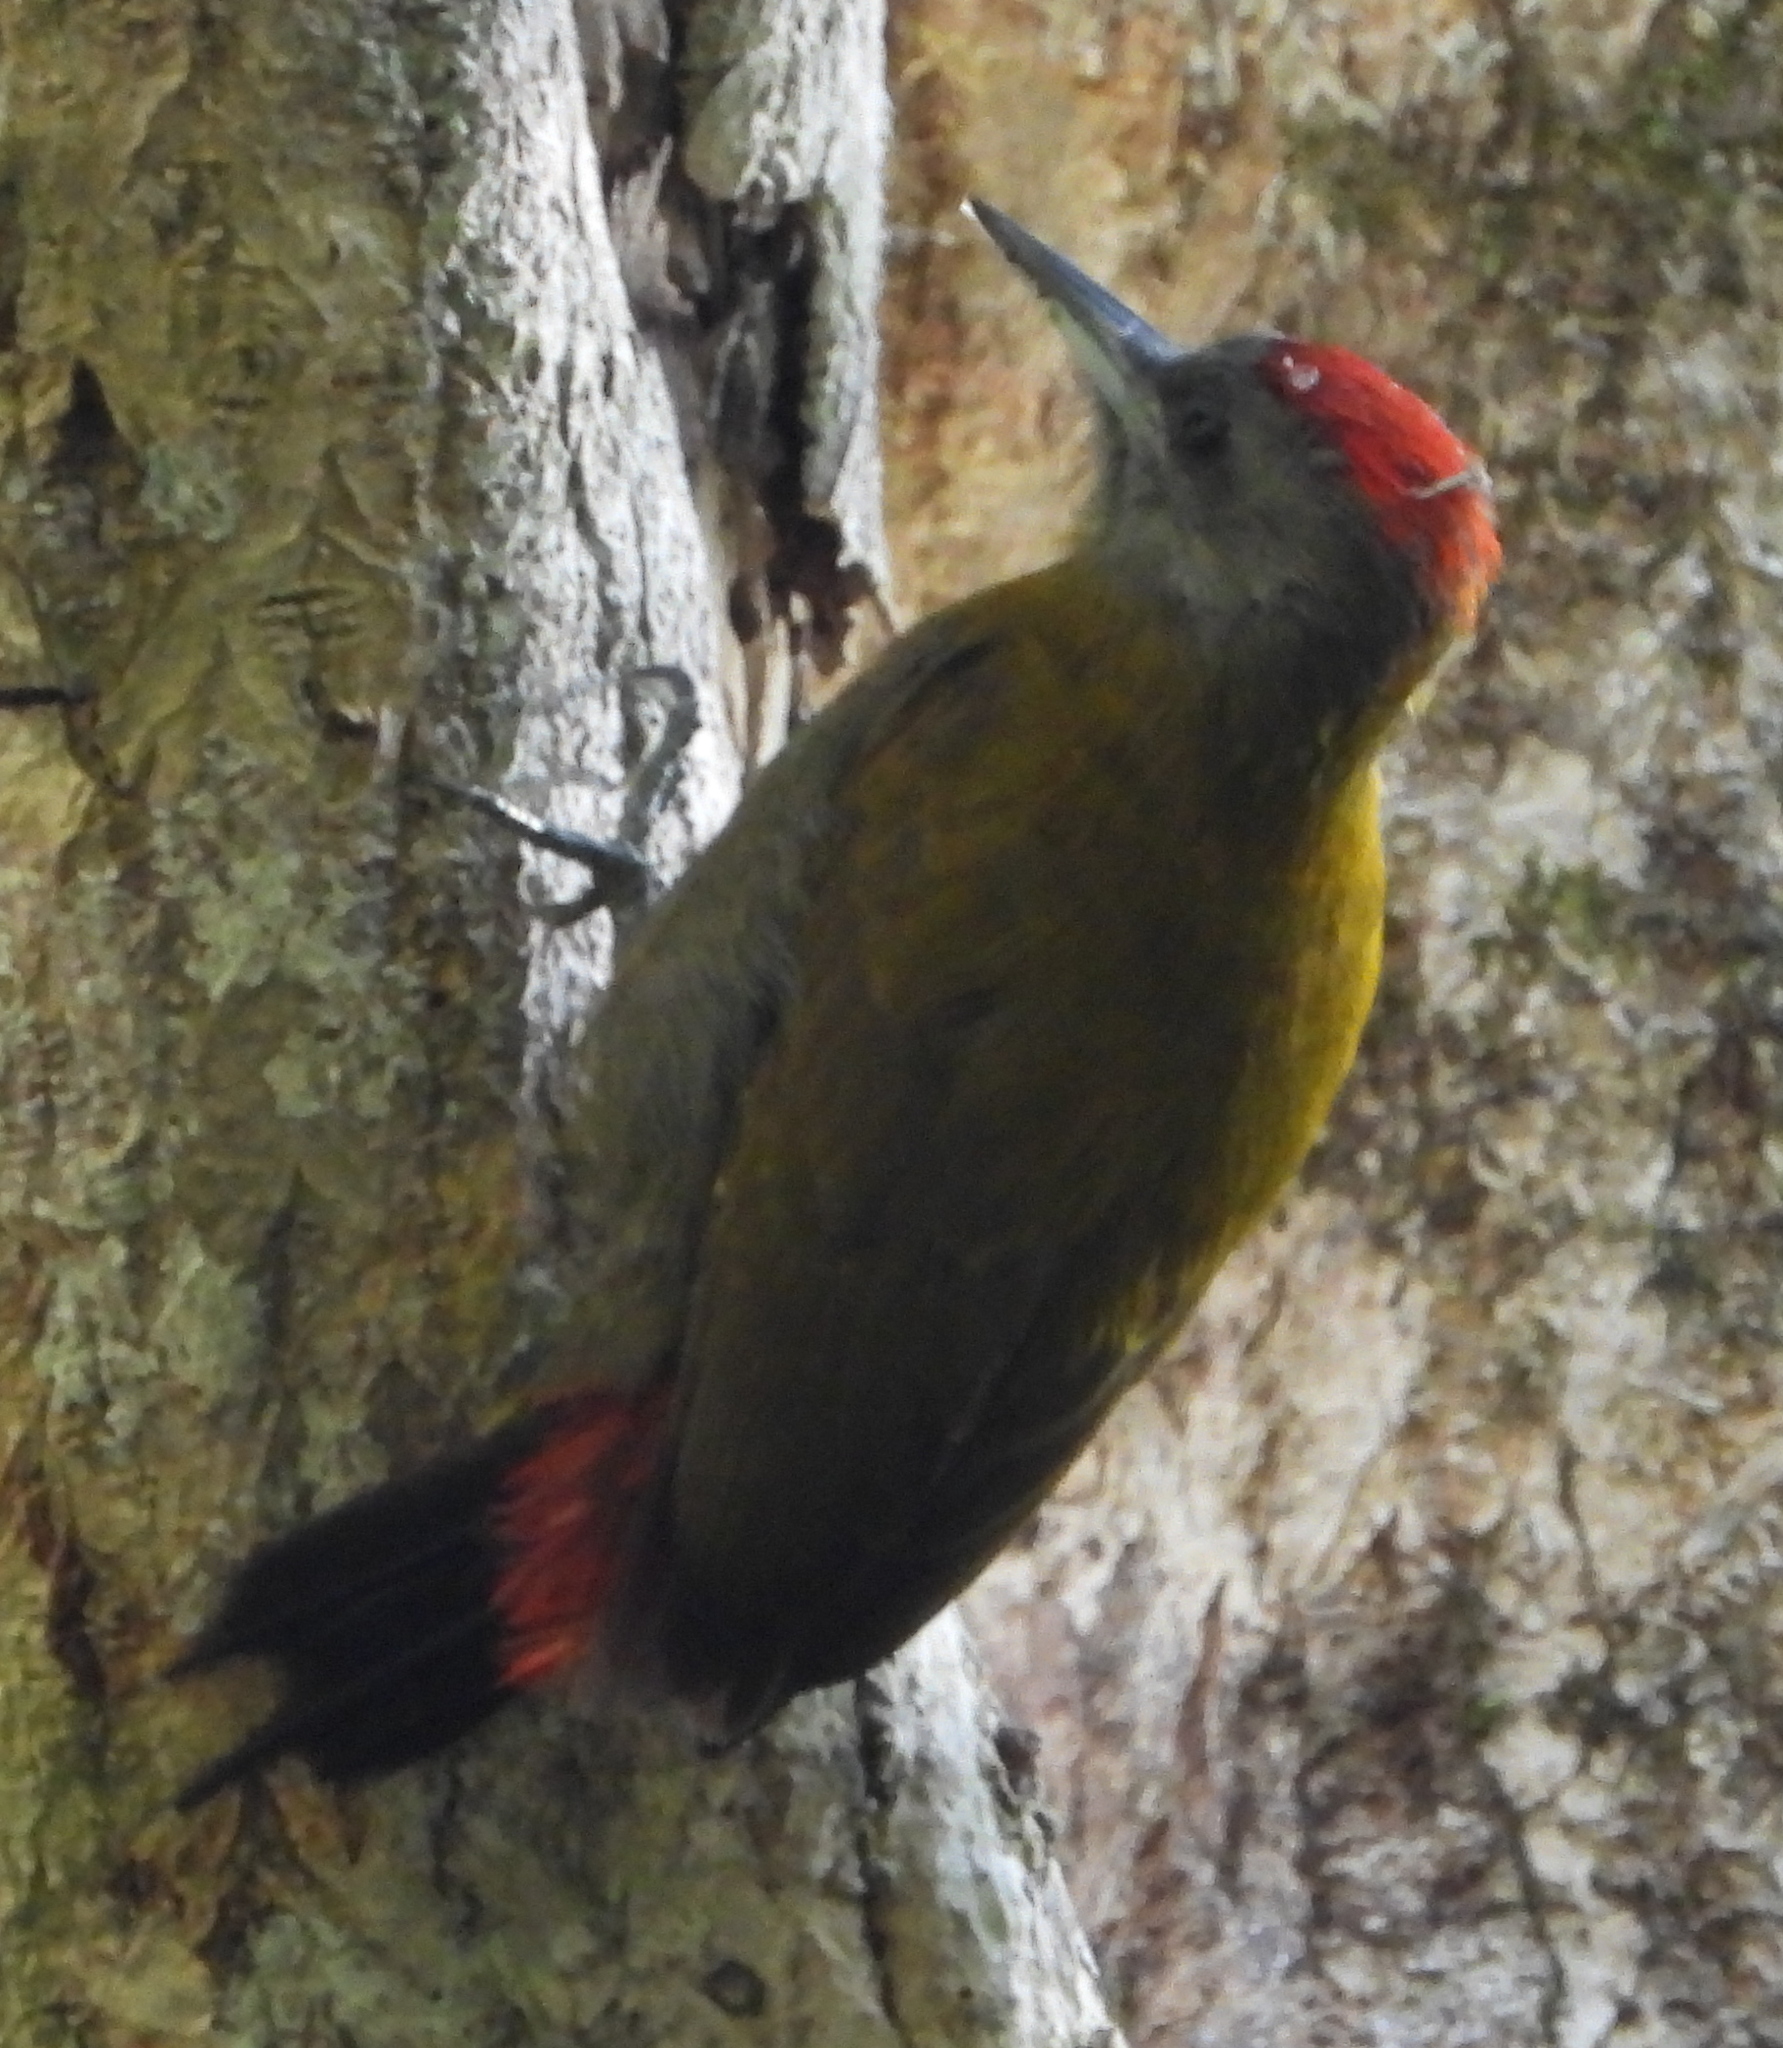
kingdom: Animalia
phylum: Chordata
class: Aves
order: Piciformes
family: Picidae
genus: Dendropicos
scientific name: Dendropicos griseocephalus
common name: Olive woodpecker
